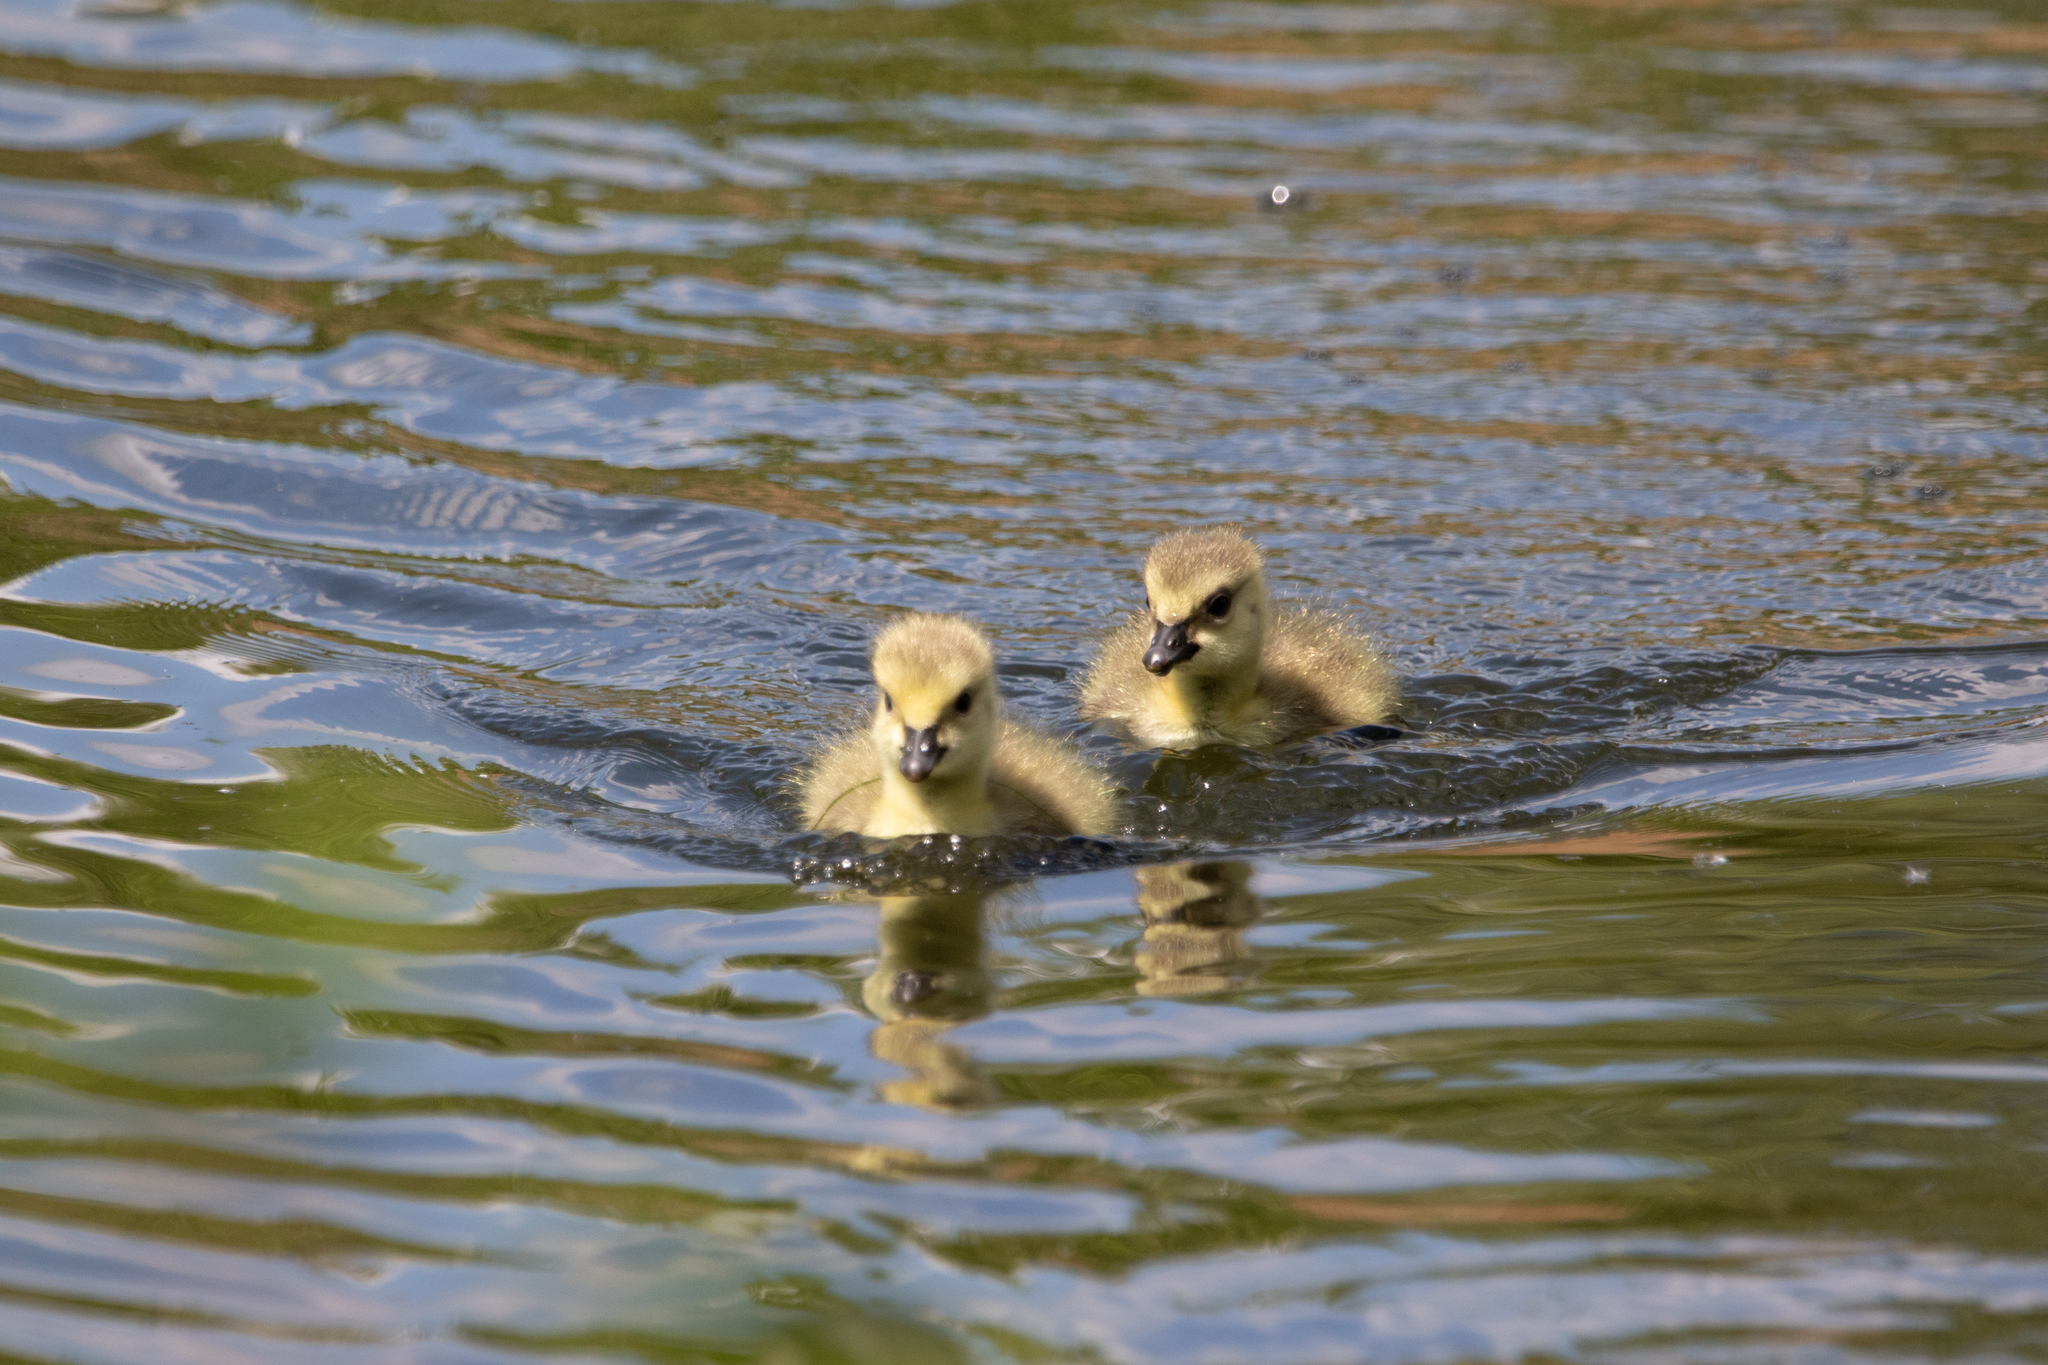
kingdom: Animalia
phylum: Chordata
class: Aves
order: Anseriformes
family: Anatidae
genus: Branta
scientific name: Branta canadensis
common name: Canada goose
